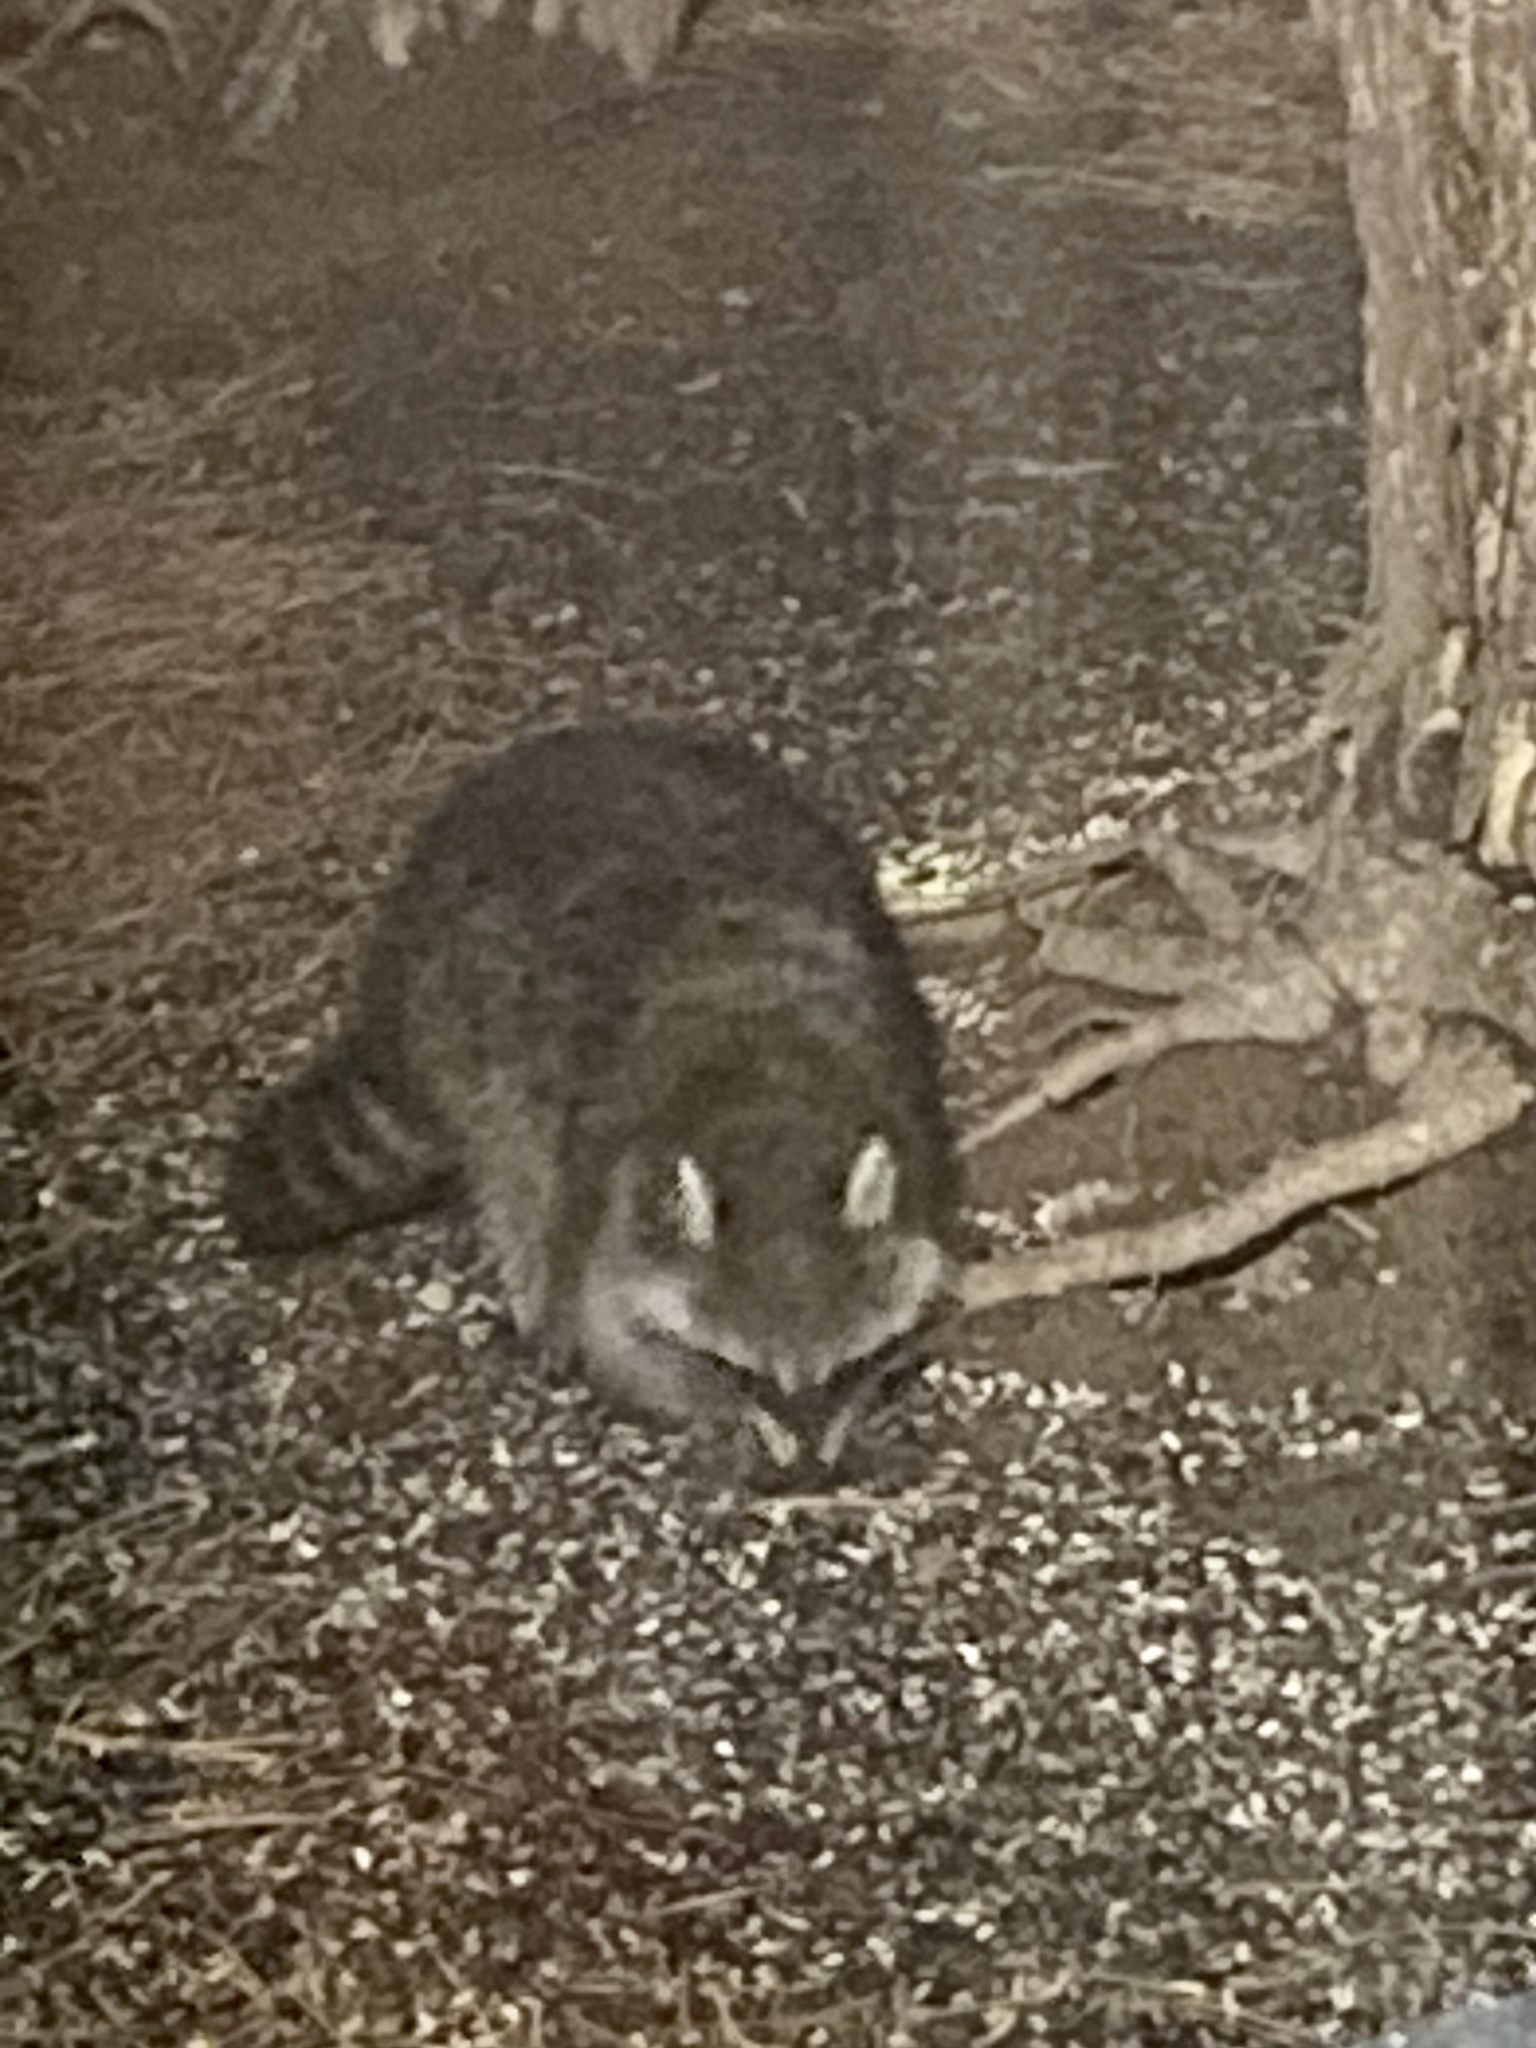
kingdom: Animalia
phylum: Chordata
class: Mammalia
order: Carnivora
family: Procyonidae
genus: Procyon
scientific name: Procyon lotor
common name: Raccoon
